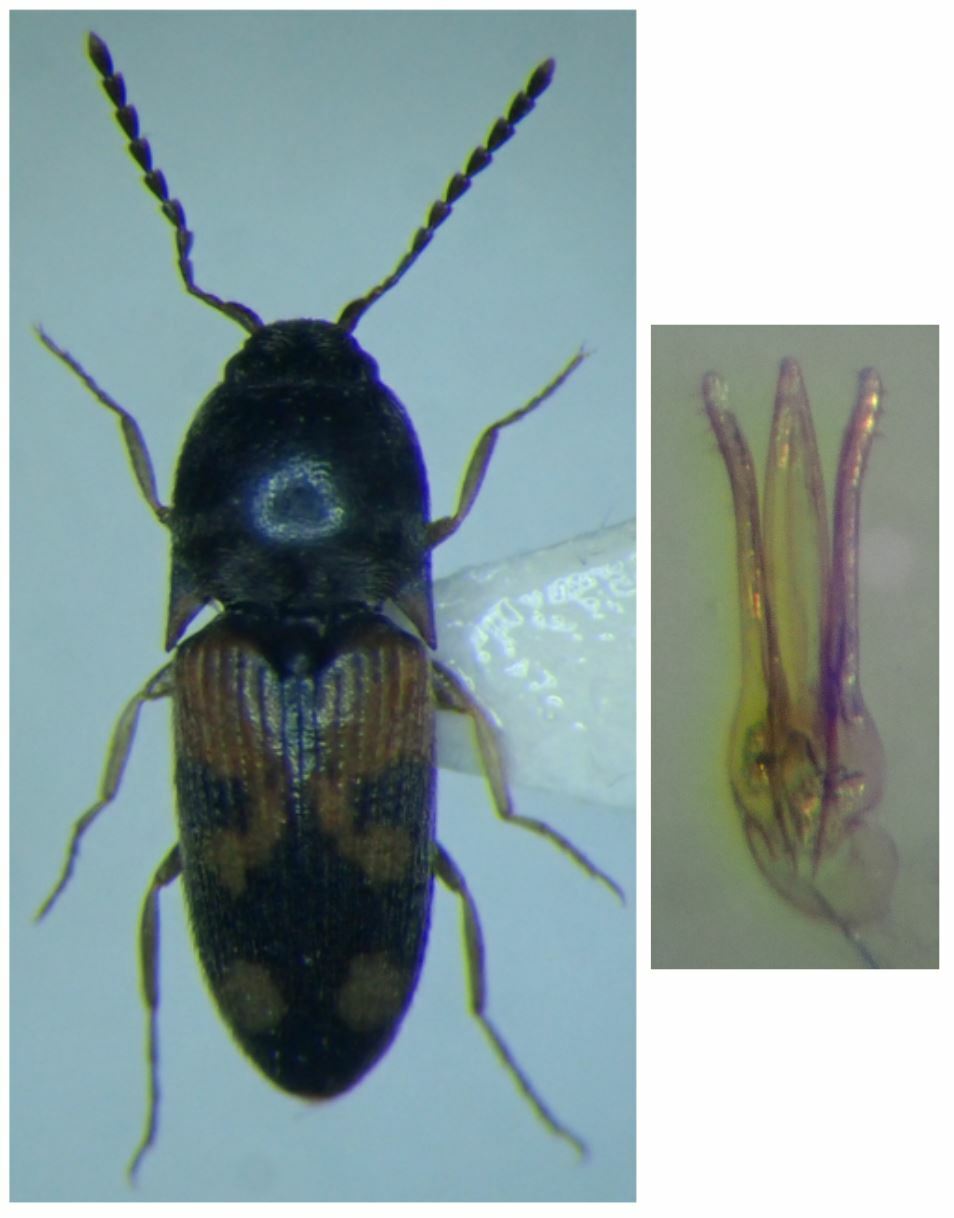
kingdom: Animalia
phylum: Arthropoda
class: Insecta
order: Coleoptera
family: Elateridae
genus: Drasterius
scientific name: Drasterius bimaculatus
